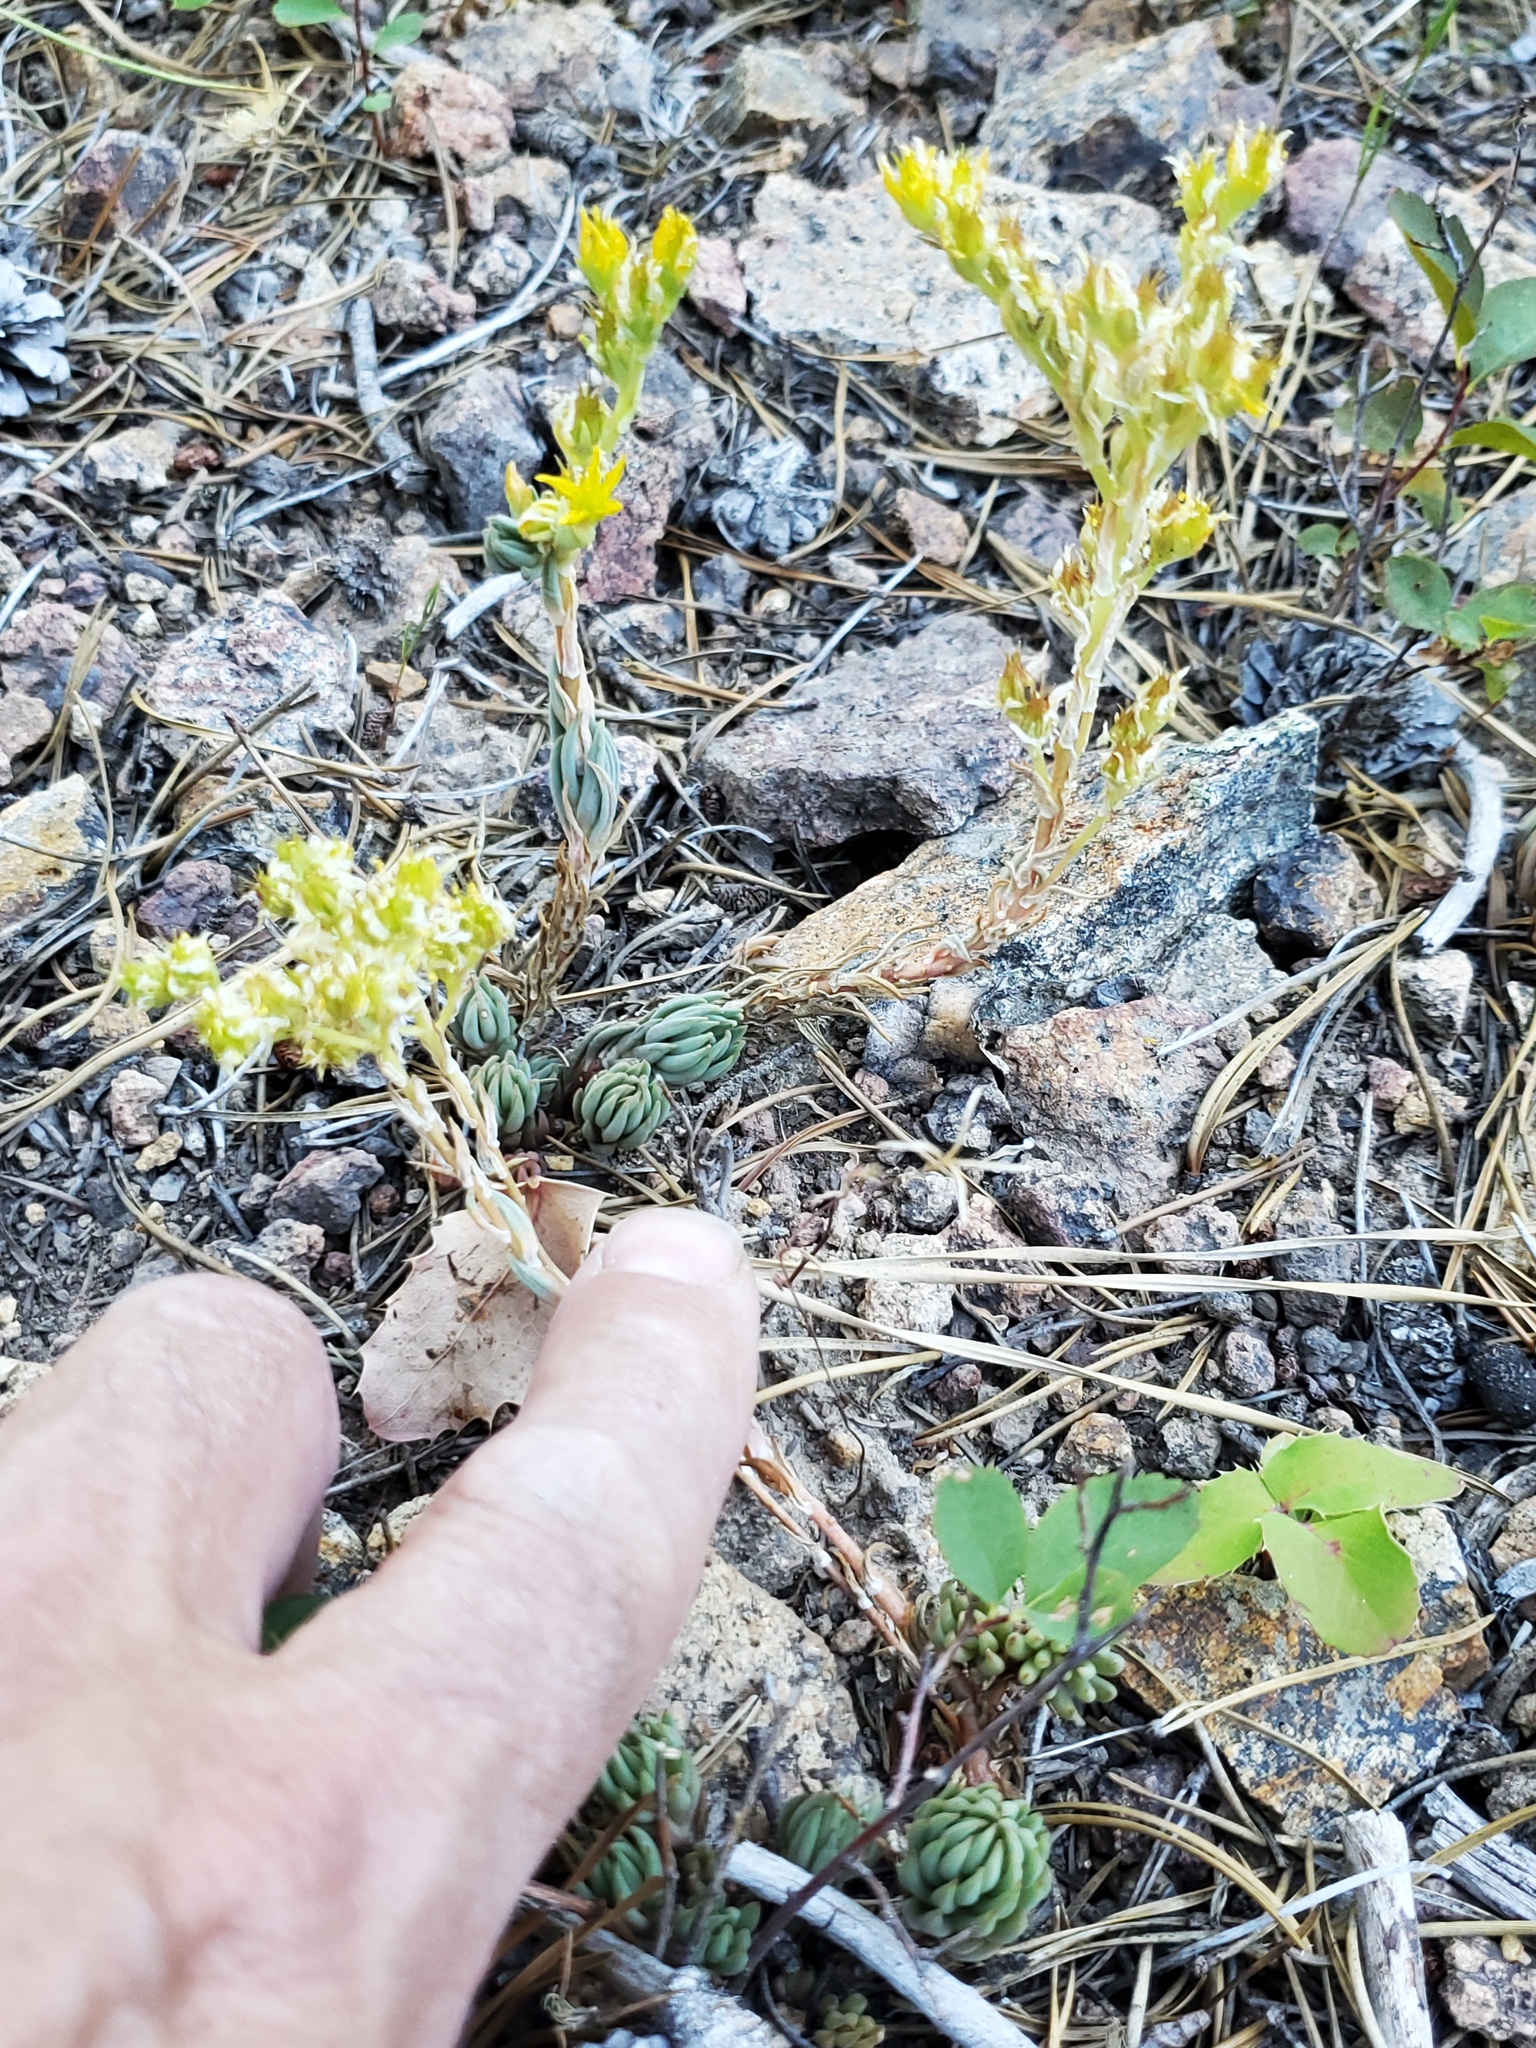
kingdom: Plantae
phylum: Tracheophyta
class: Magnoliopsida
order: Saxifragales
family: Crassulaceae
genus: Sedum
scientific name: Sedum lanceolatum
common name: Common stonecrop
